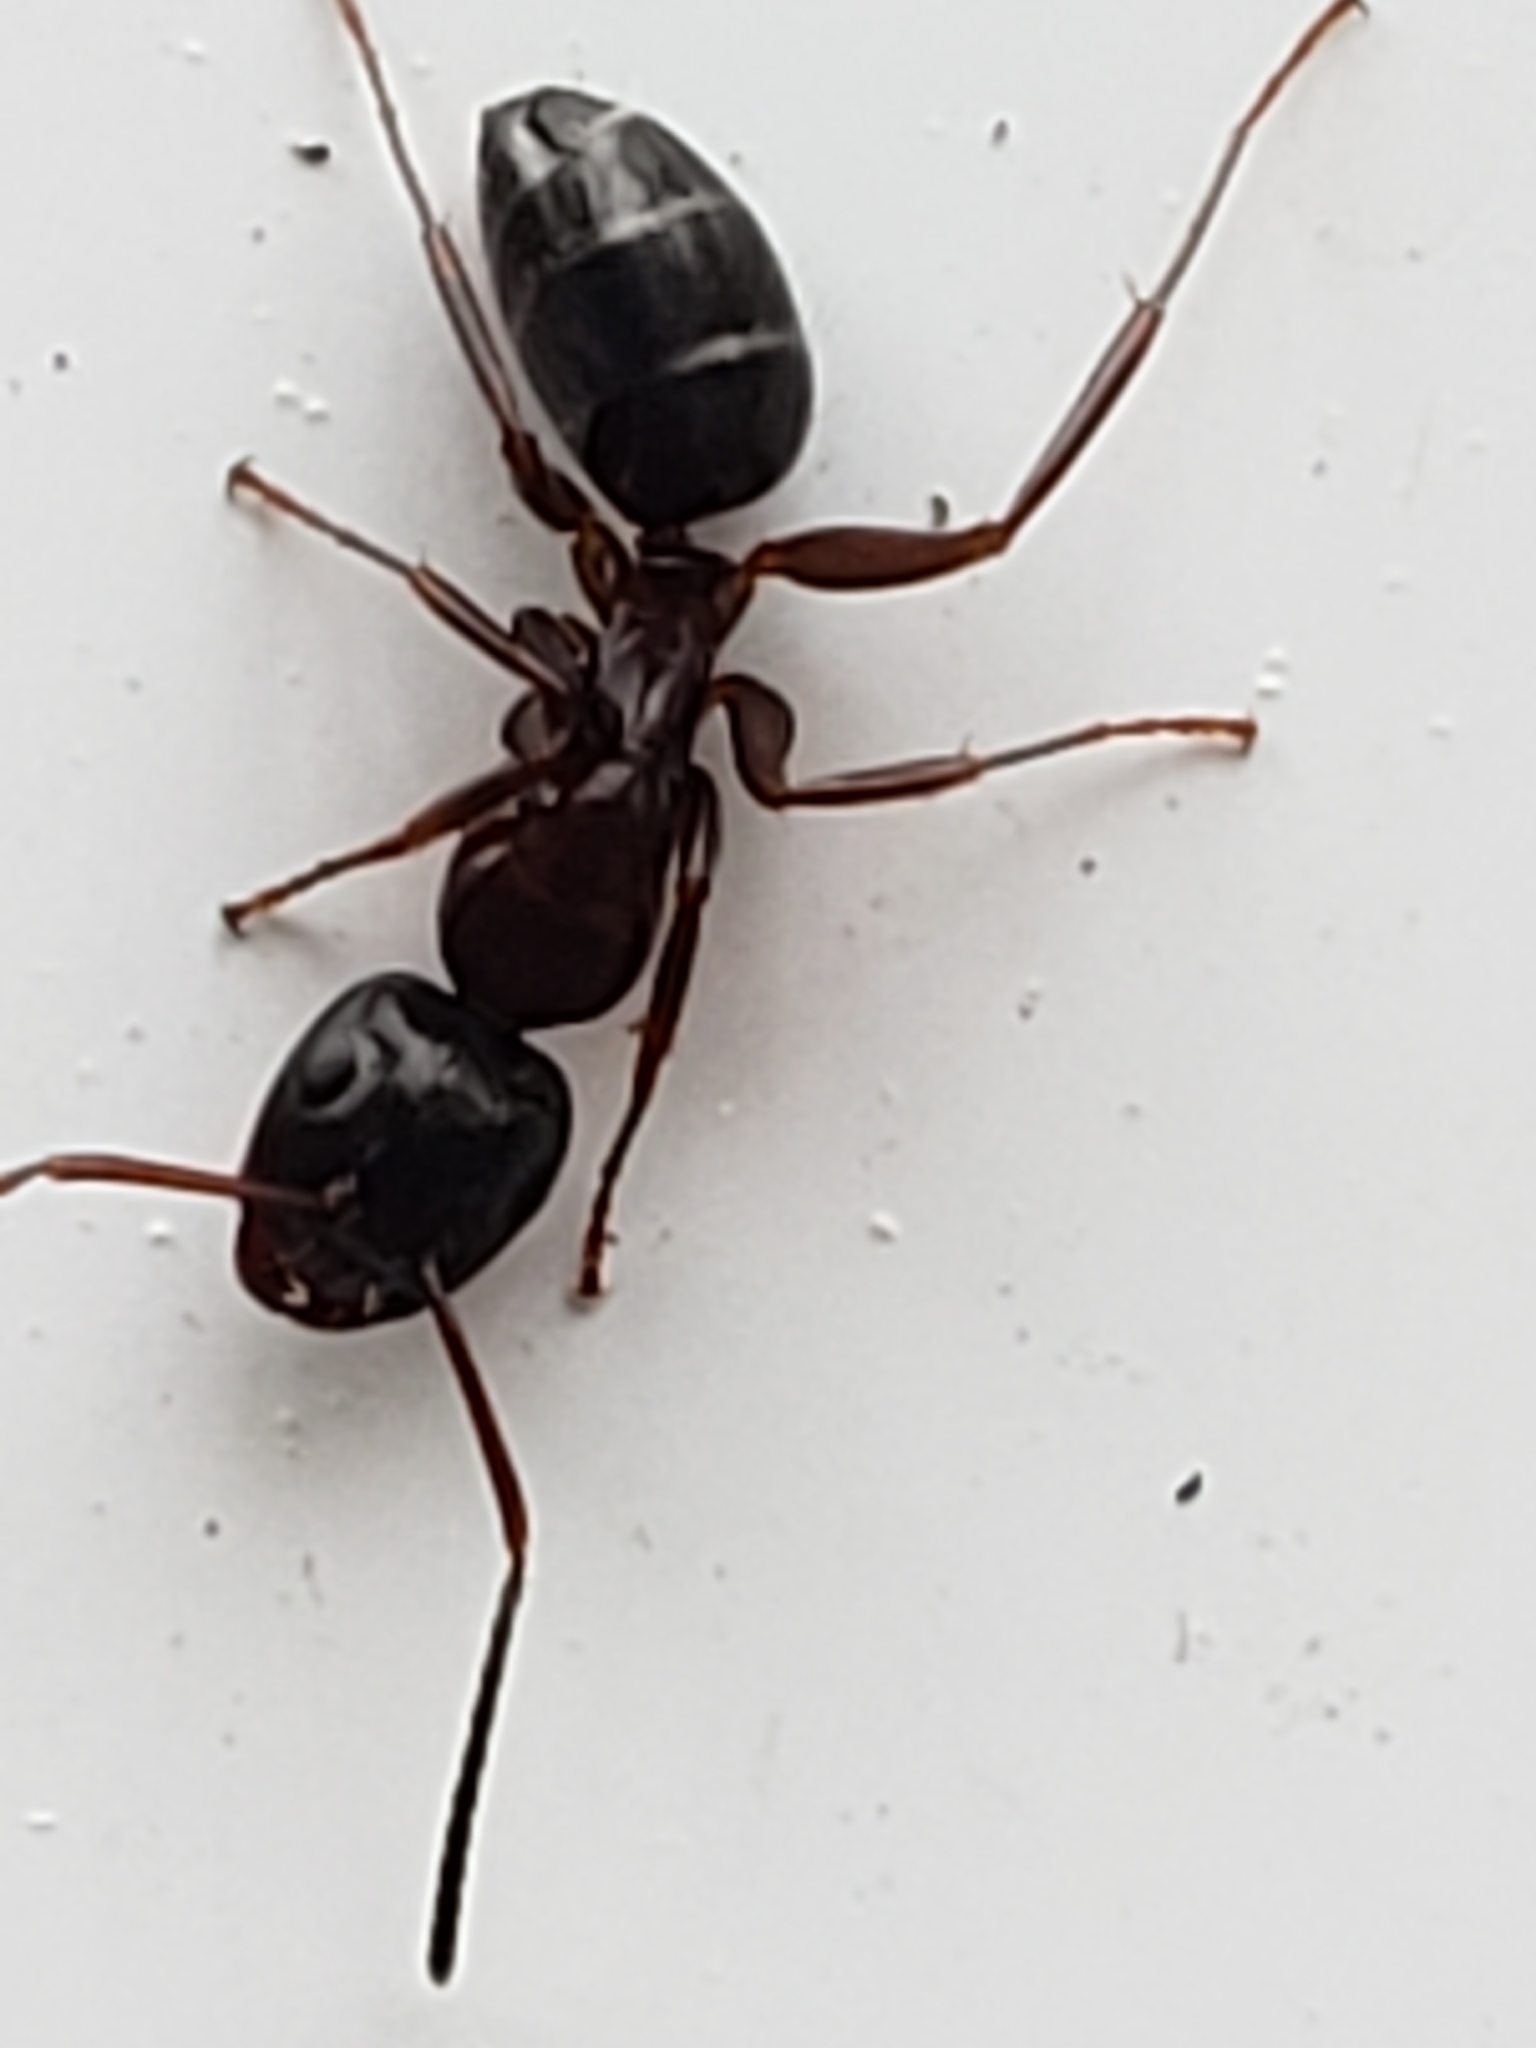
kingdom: Animalia
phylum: Arthropoda
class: Insecta
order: Hymenoptera
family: Formicidae
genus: Camponotus
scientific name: Camponotus nearcticus
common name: Smaller carpenter ant
